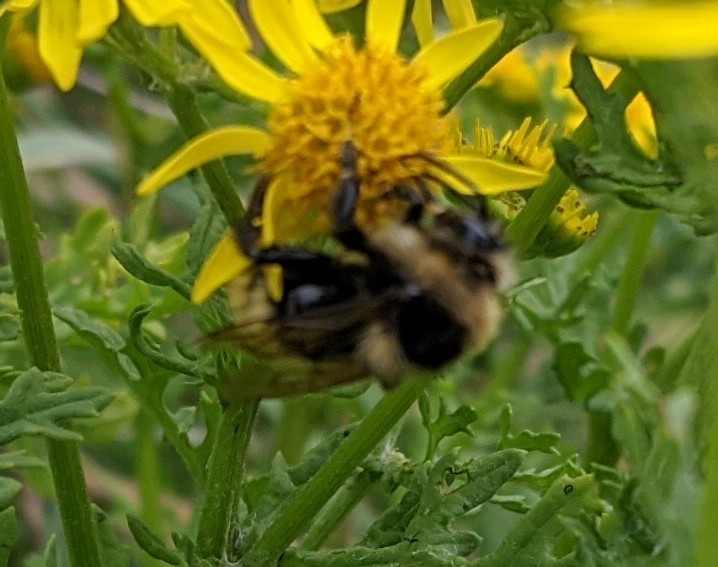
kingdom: Animalia
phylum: Arthropoda
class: Insecta
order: Hymenoptera
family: Apidae
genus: Bombus
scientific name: Bombus borealis
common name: Northern amber bumble bee
